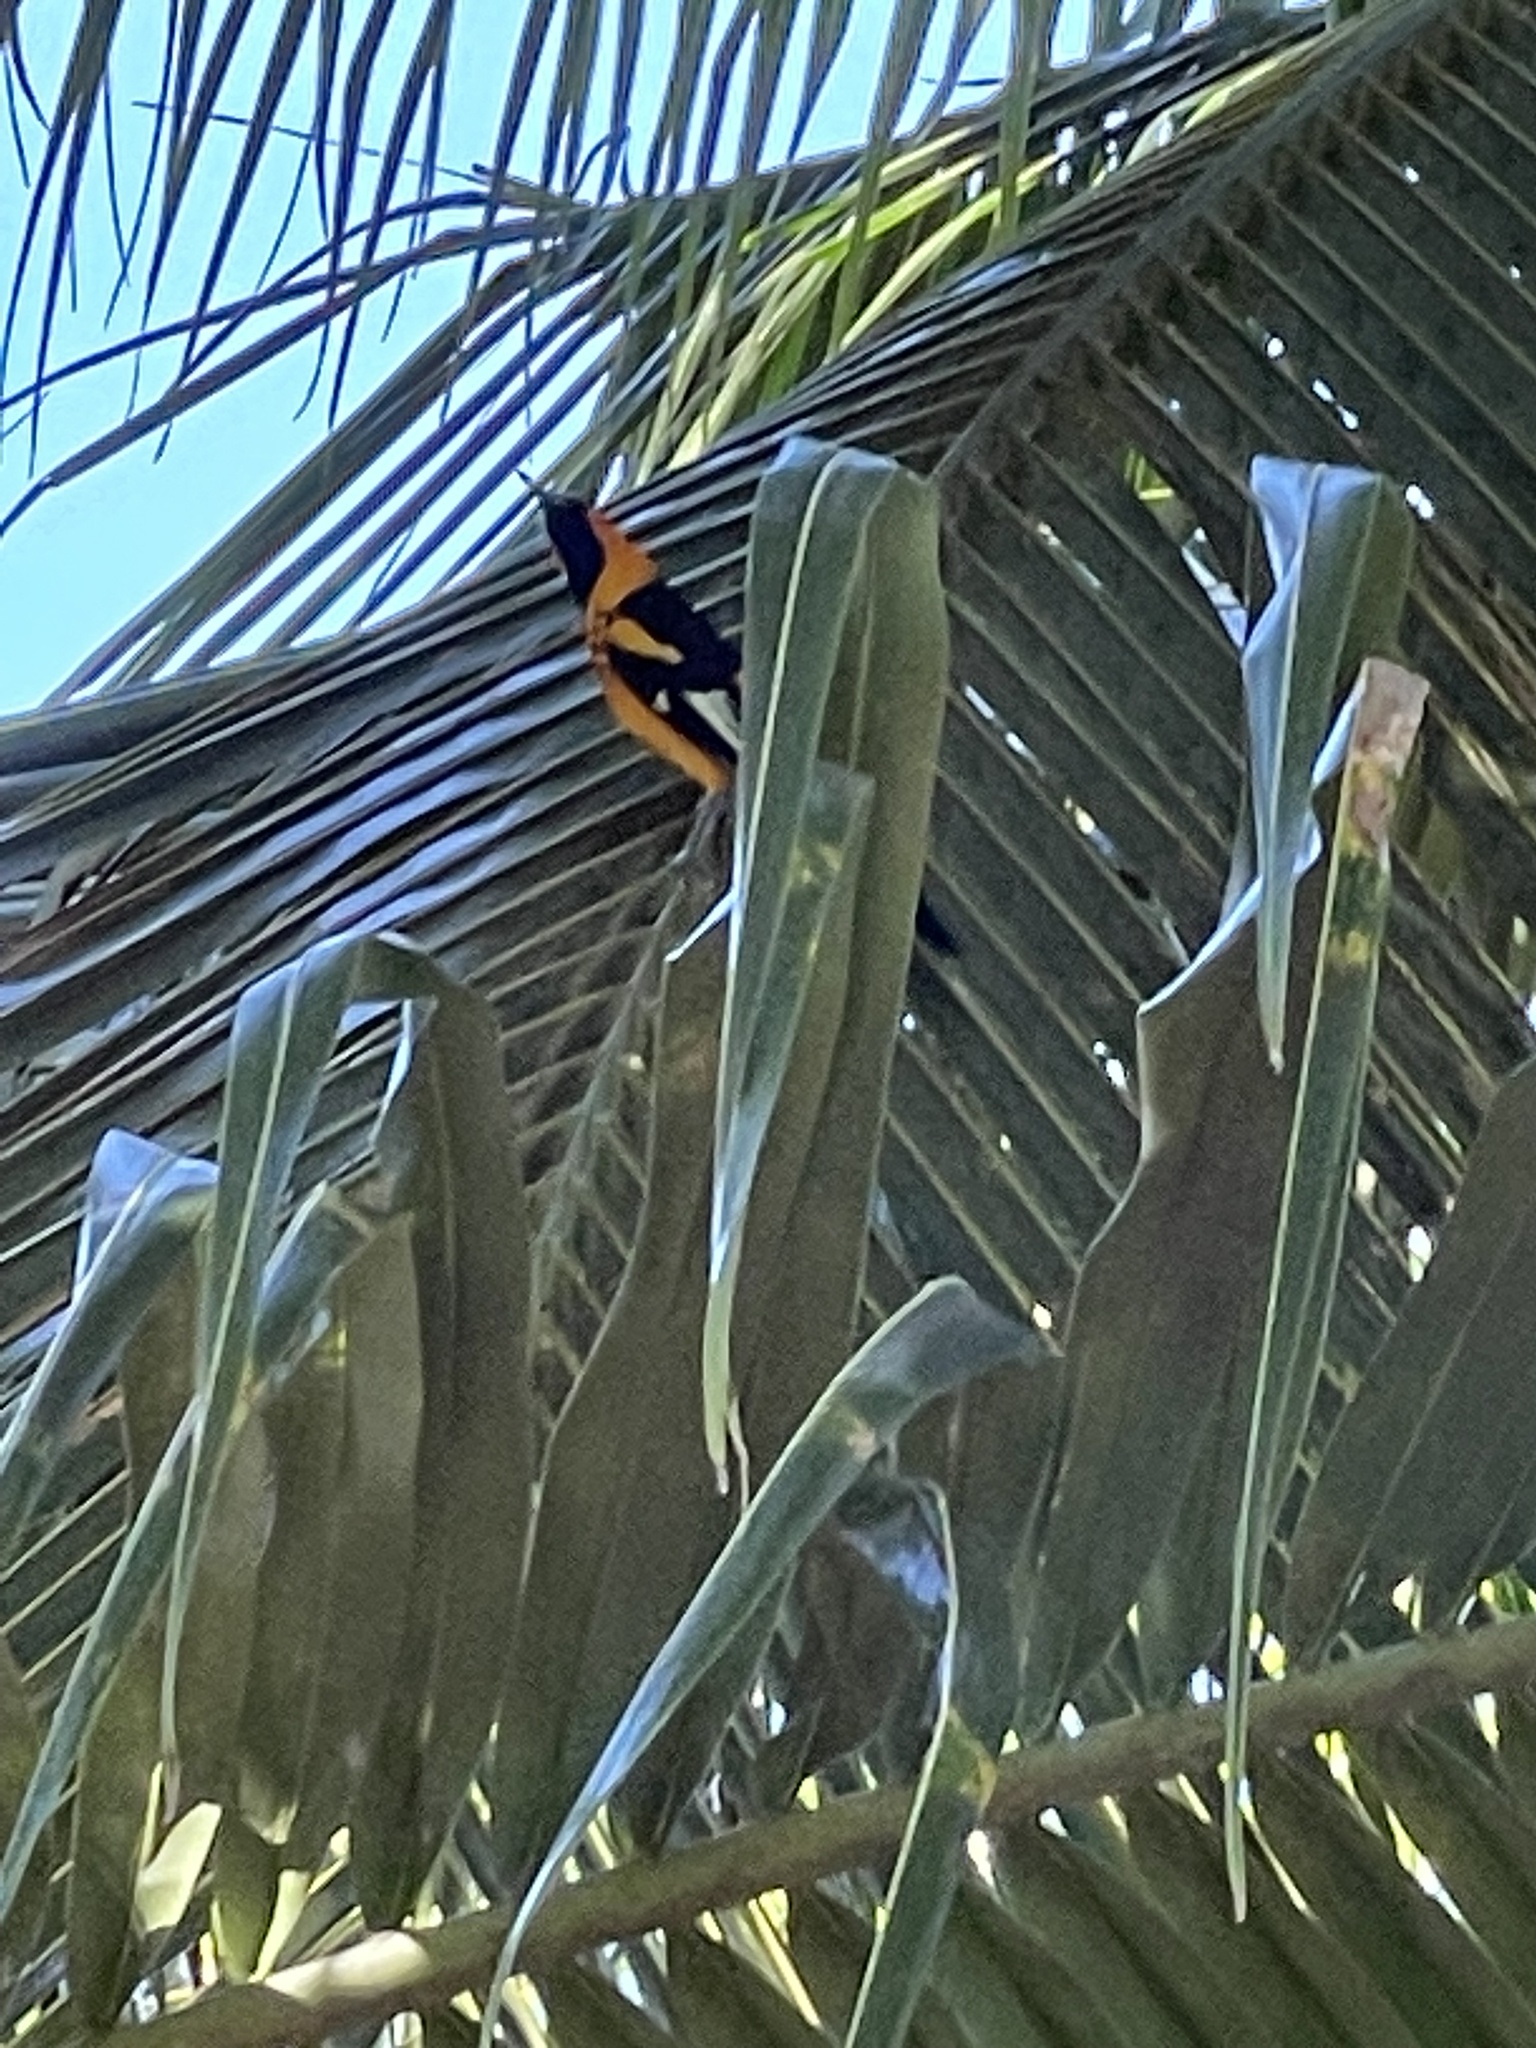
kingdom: Animalia
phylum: Chordata
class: Aves
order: Passeriformes
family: Icteridae
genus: Icterus
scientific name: Icterus pectoralis
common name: Spot-breasted oriole
